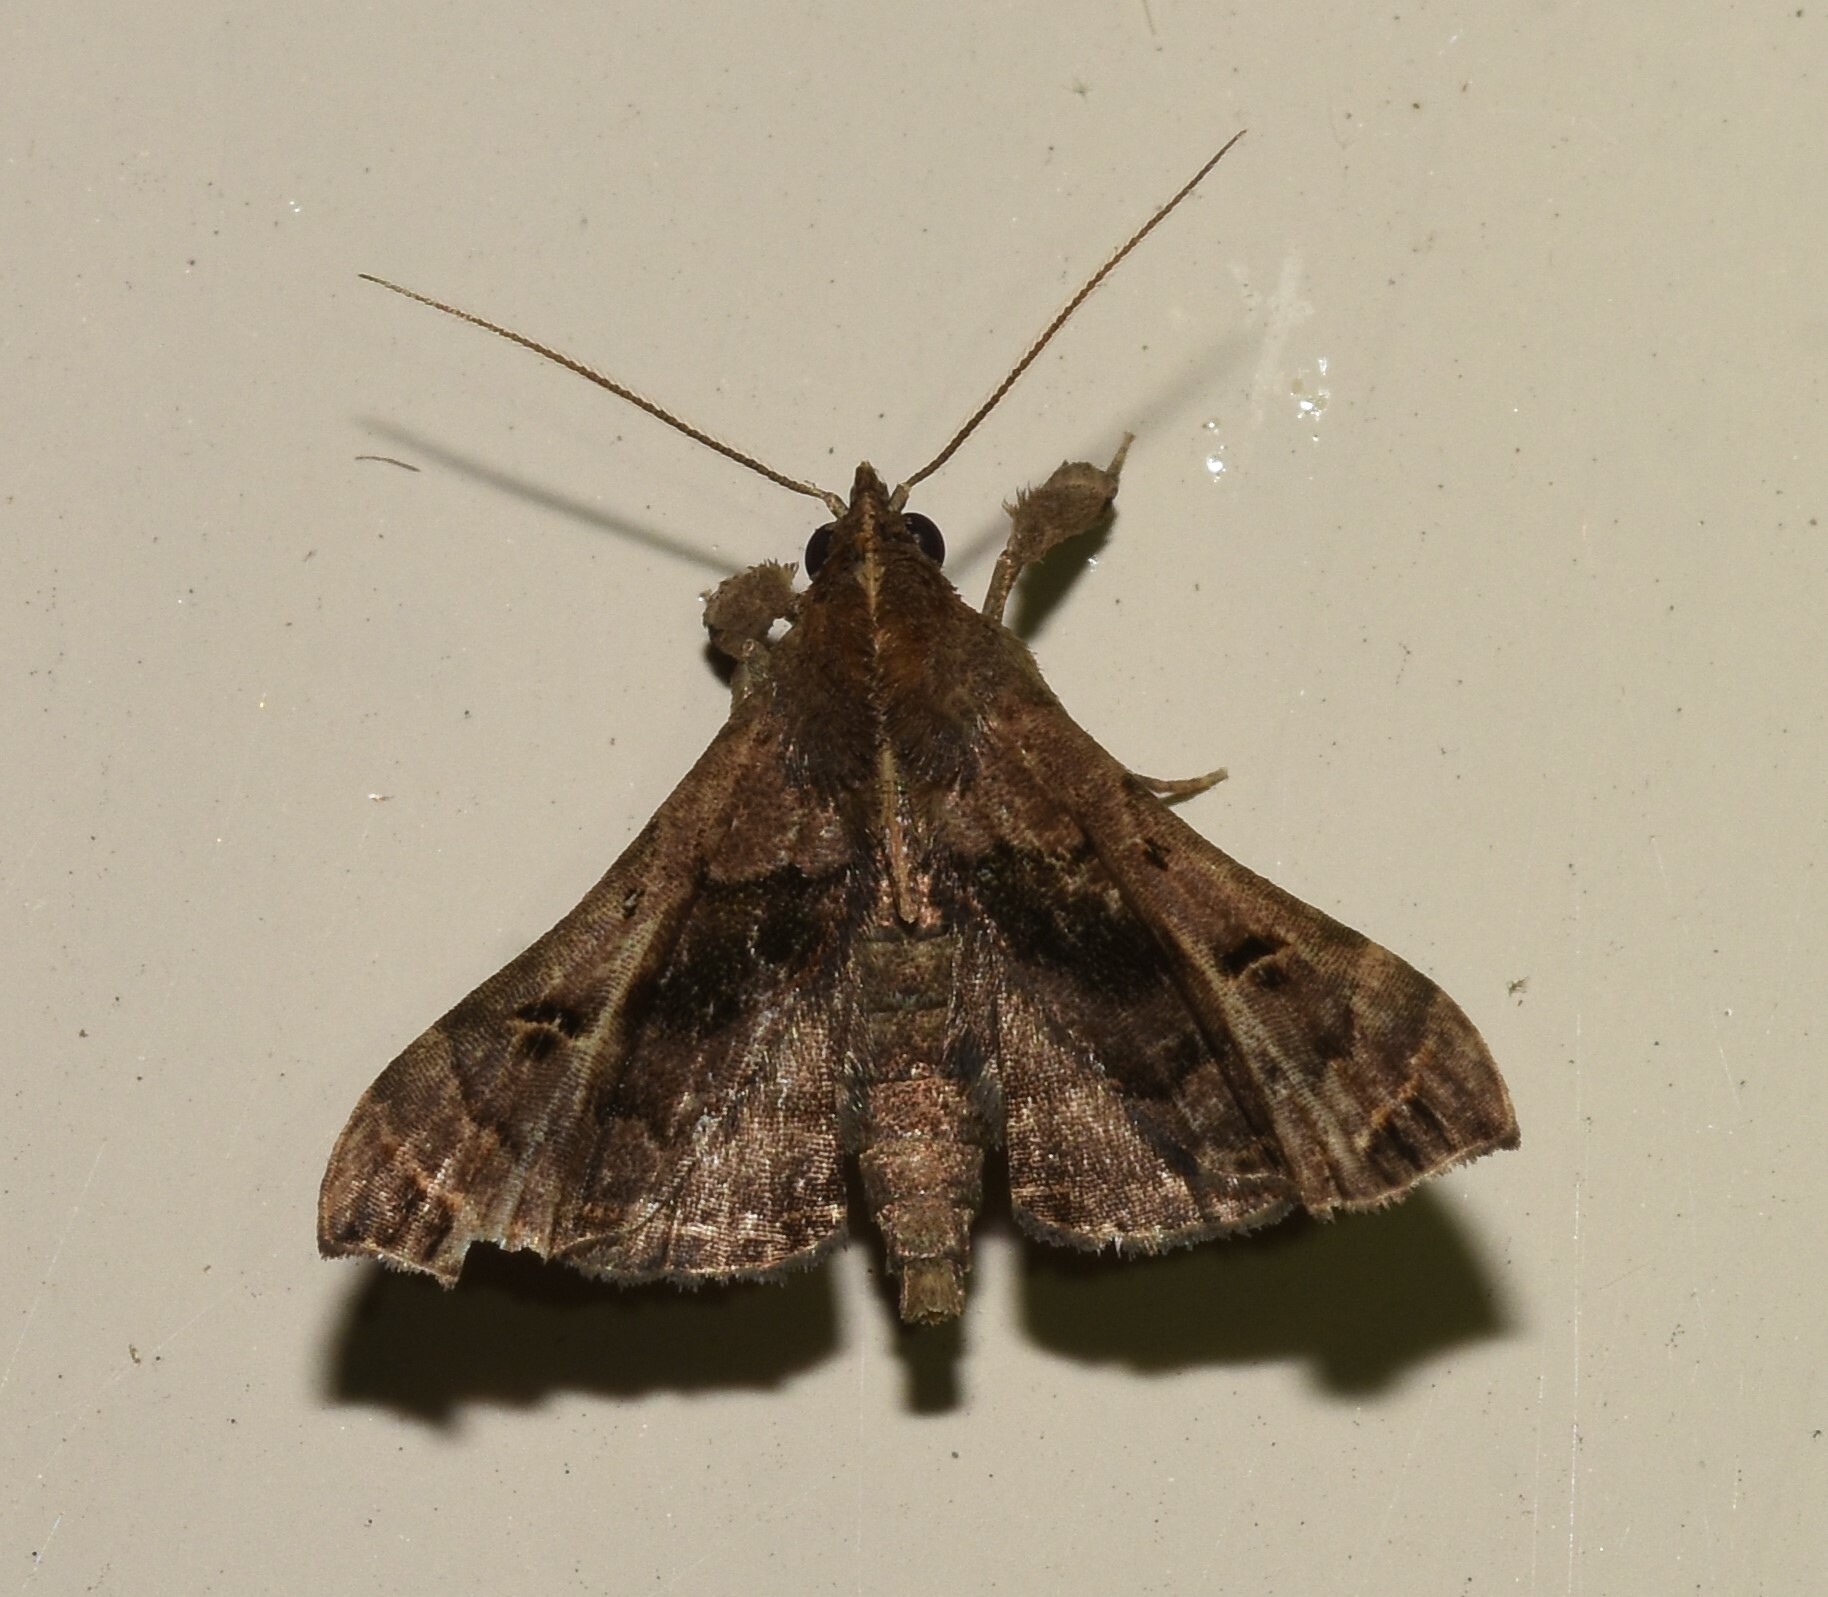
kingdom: Animalia
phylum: Arthropoda
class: Insecta
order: Lepidoptera
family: Erebidae
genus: Palthis
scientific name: Palthis asopialis
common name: Faint-spotted palthis moth
